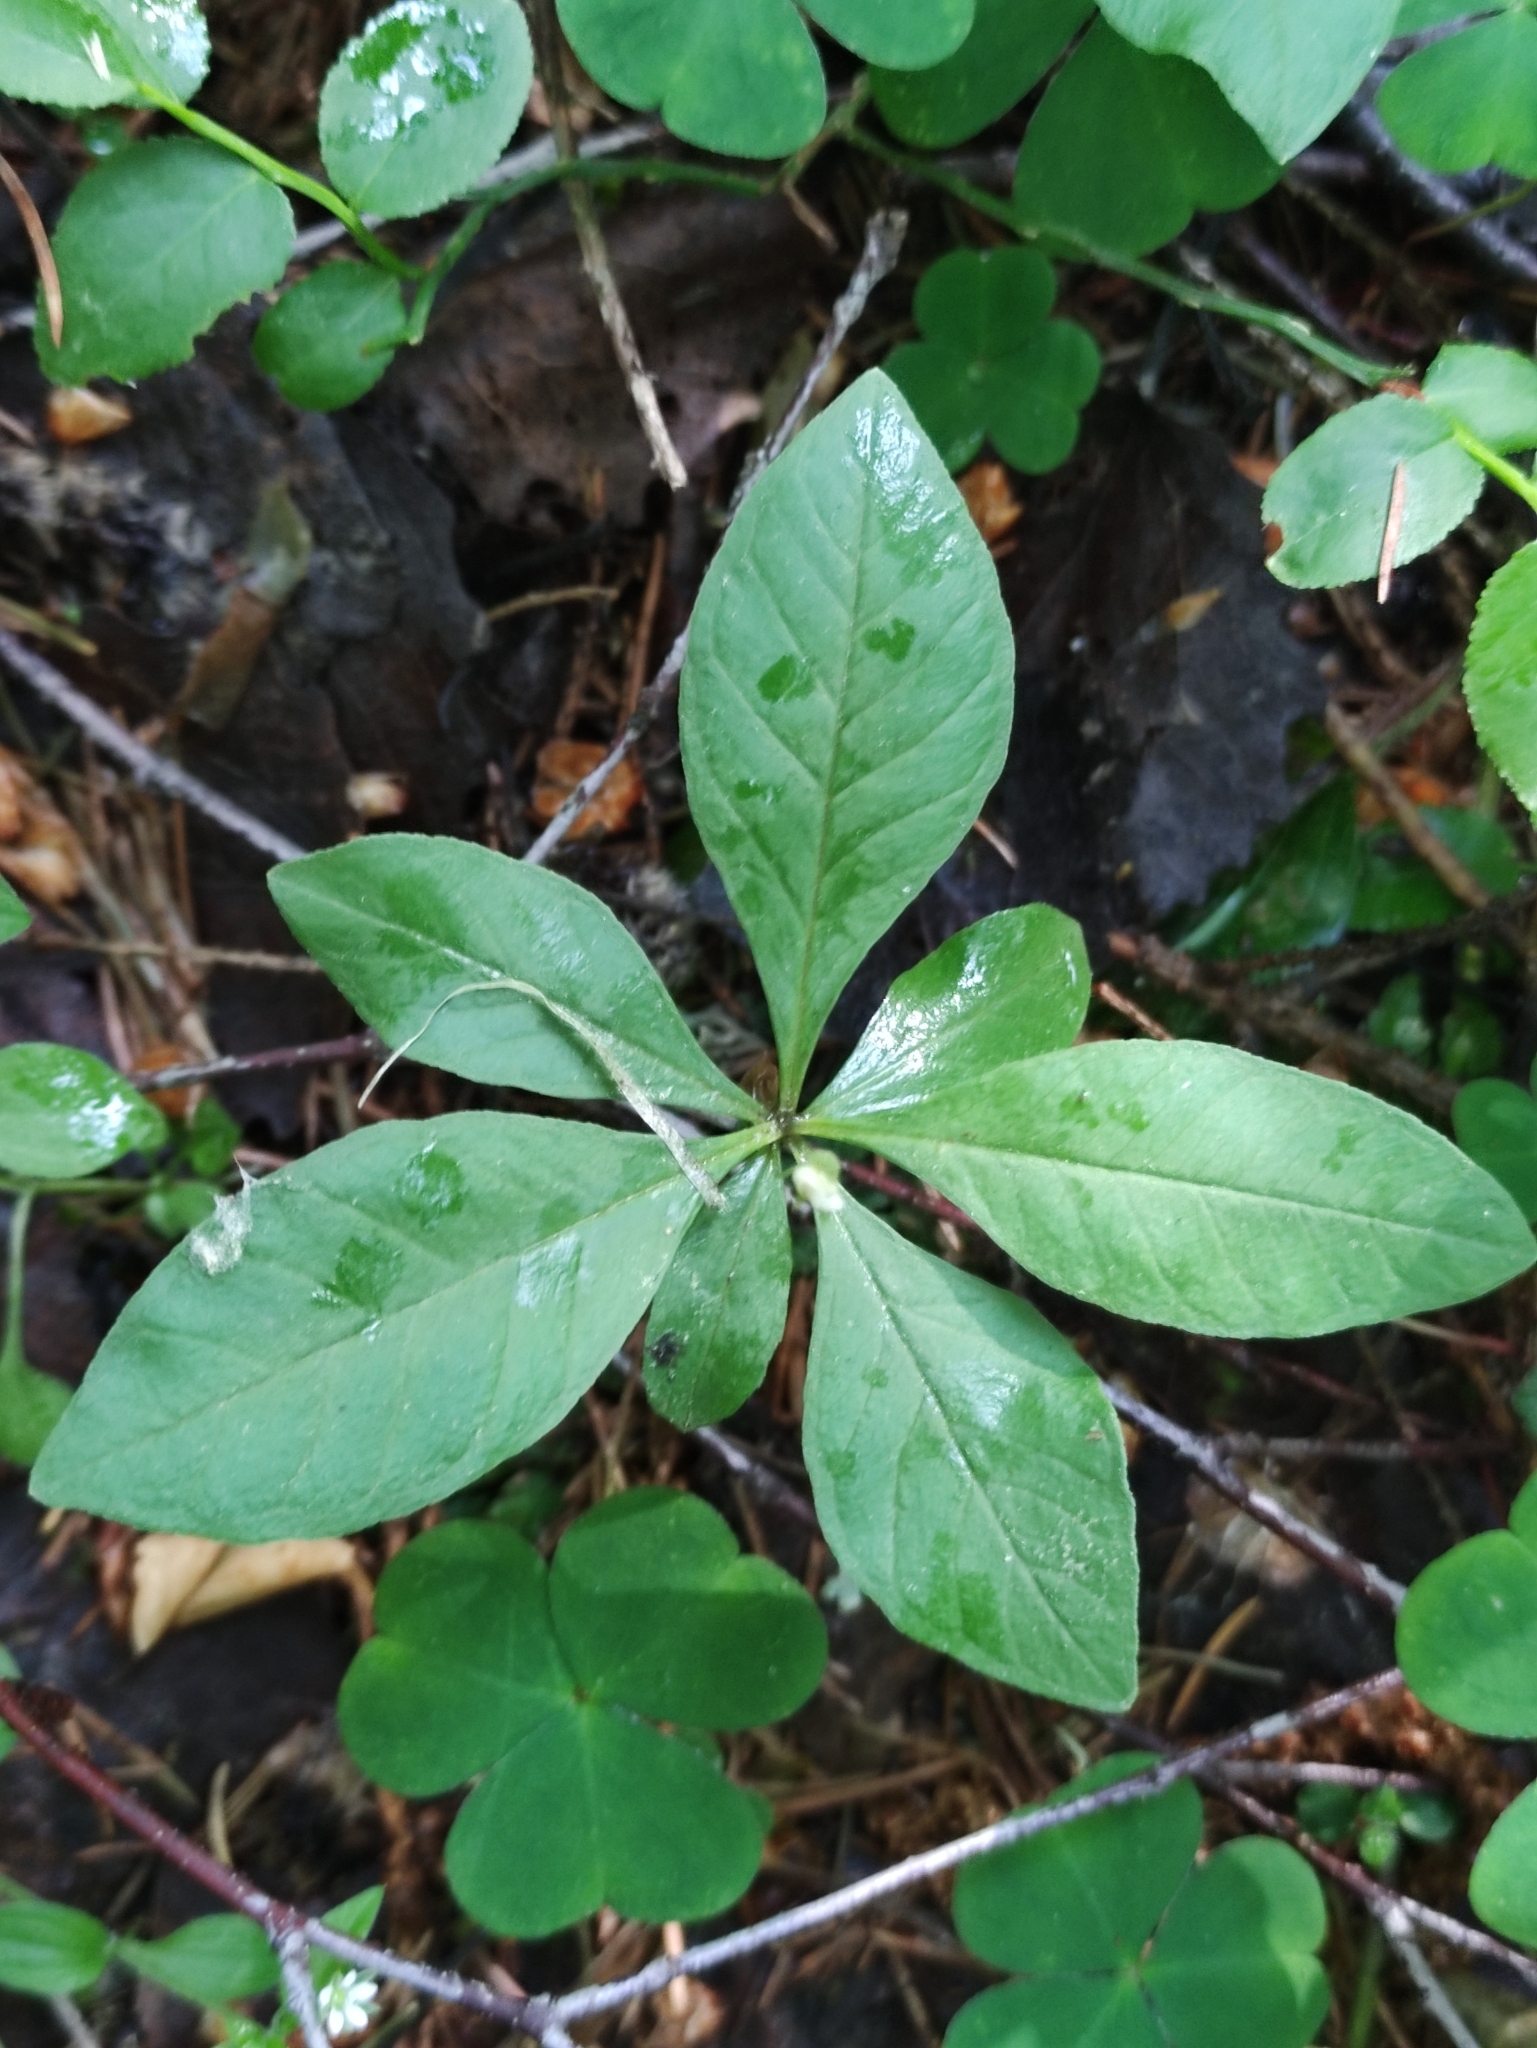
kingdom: Plantae
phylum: Tracheophyta
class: Magnoliopsida
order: Ericales
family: Primulaceae
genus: Lysimachia
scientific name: Lysimachia europaea
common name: Arctic starflower
